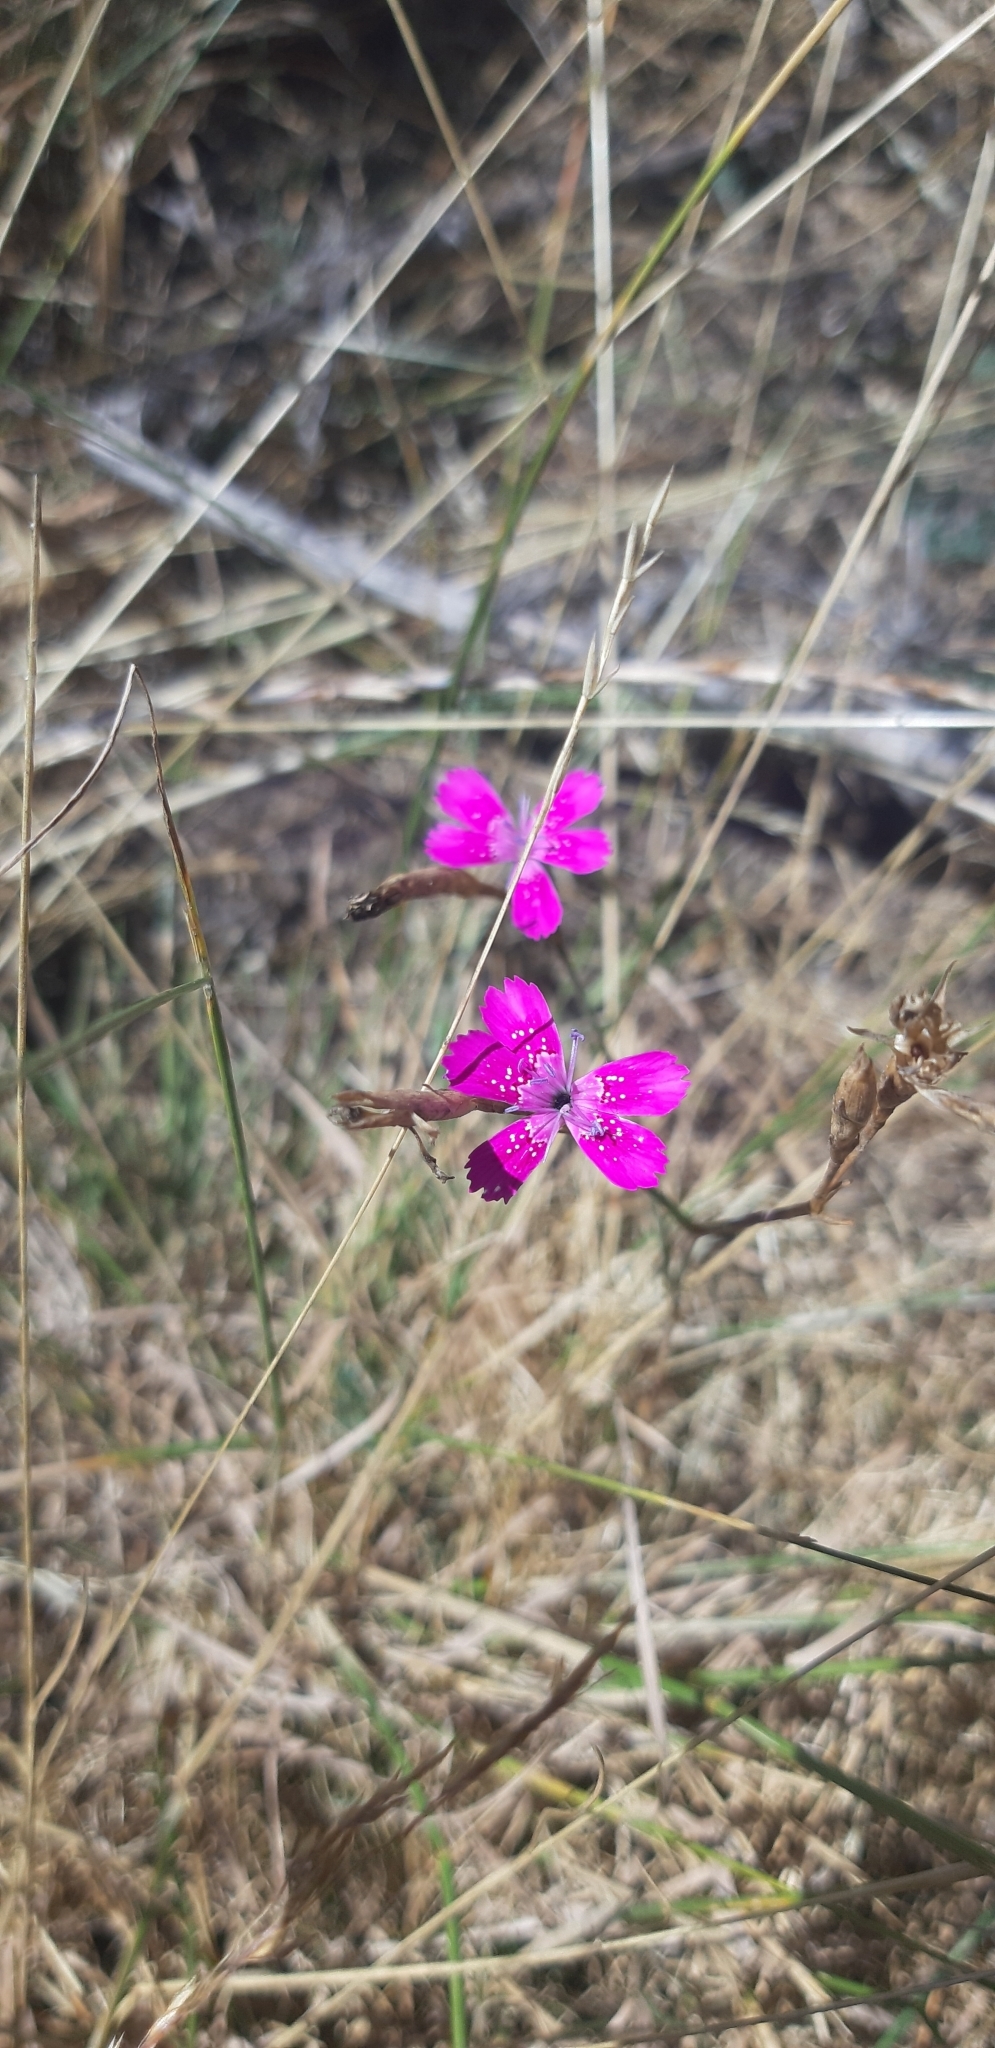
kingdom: Plantae
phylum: Tracheophyta
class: Magnoliopsida
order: Caryophyllales
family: Caryophyllaceae
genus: Dianthus
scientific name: Dianthus deltoides
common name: Maiden pink
